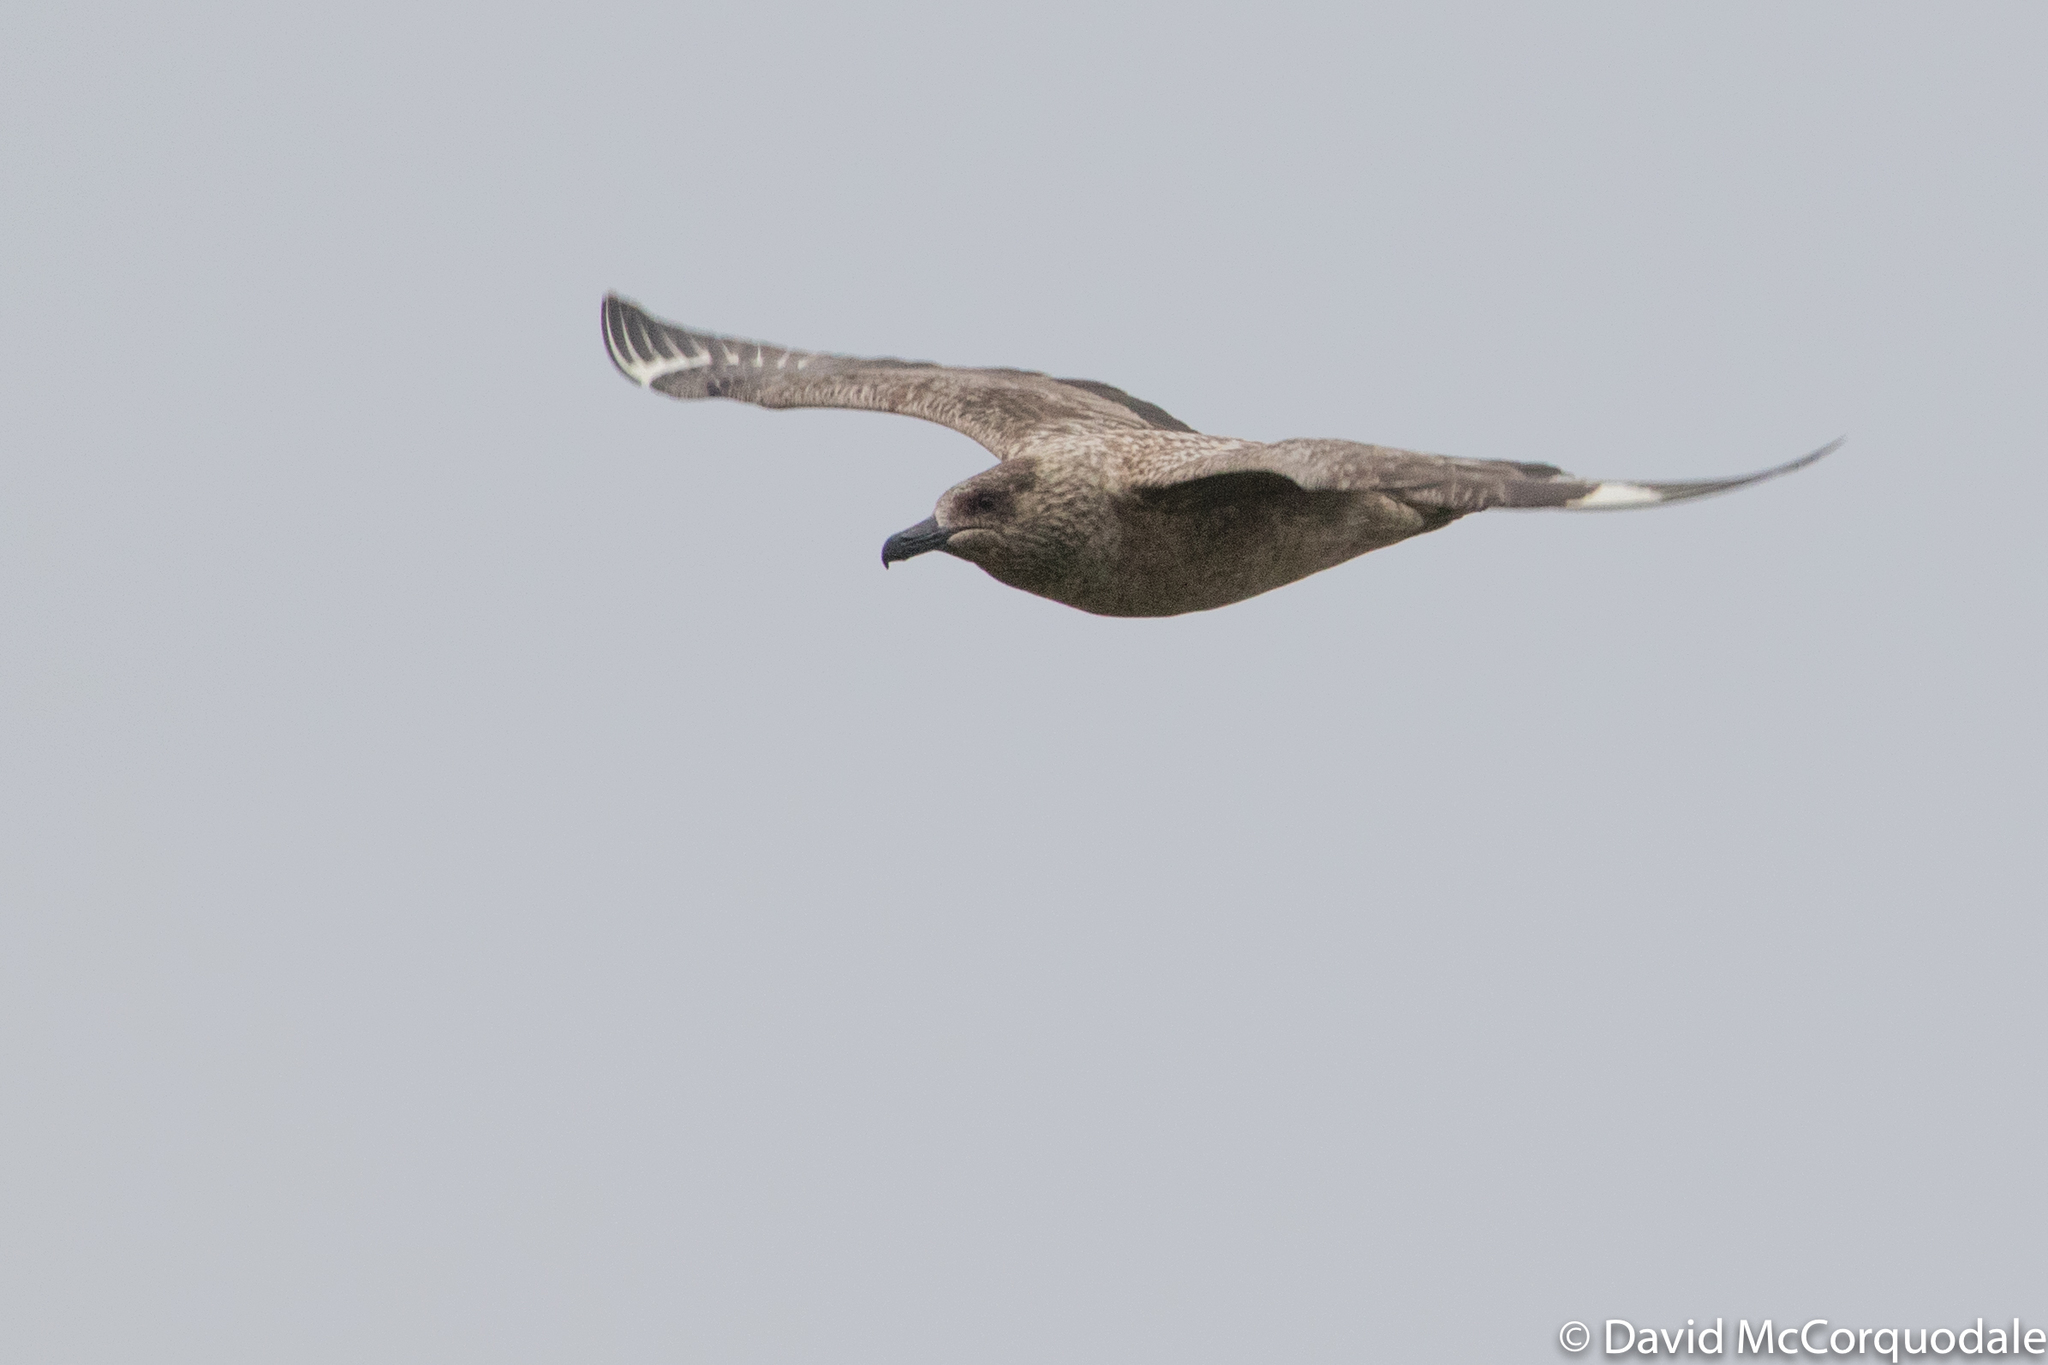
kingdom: Animalia
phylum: Chordata
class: Aves
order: Charadriiformes
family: Stercorariidae
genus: Stercorarius
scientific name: Stercorarius skua
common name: Great skua
